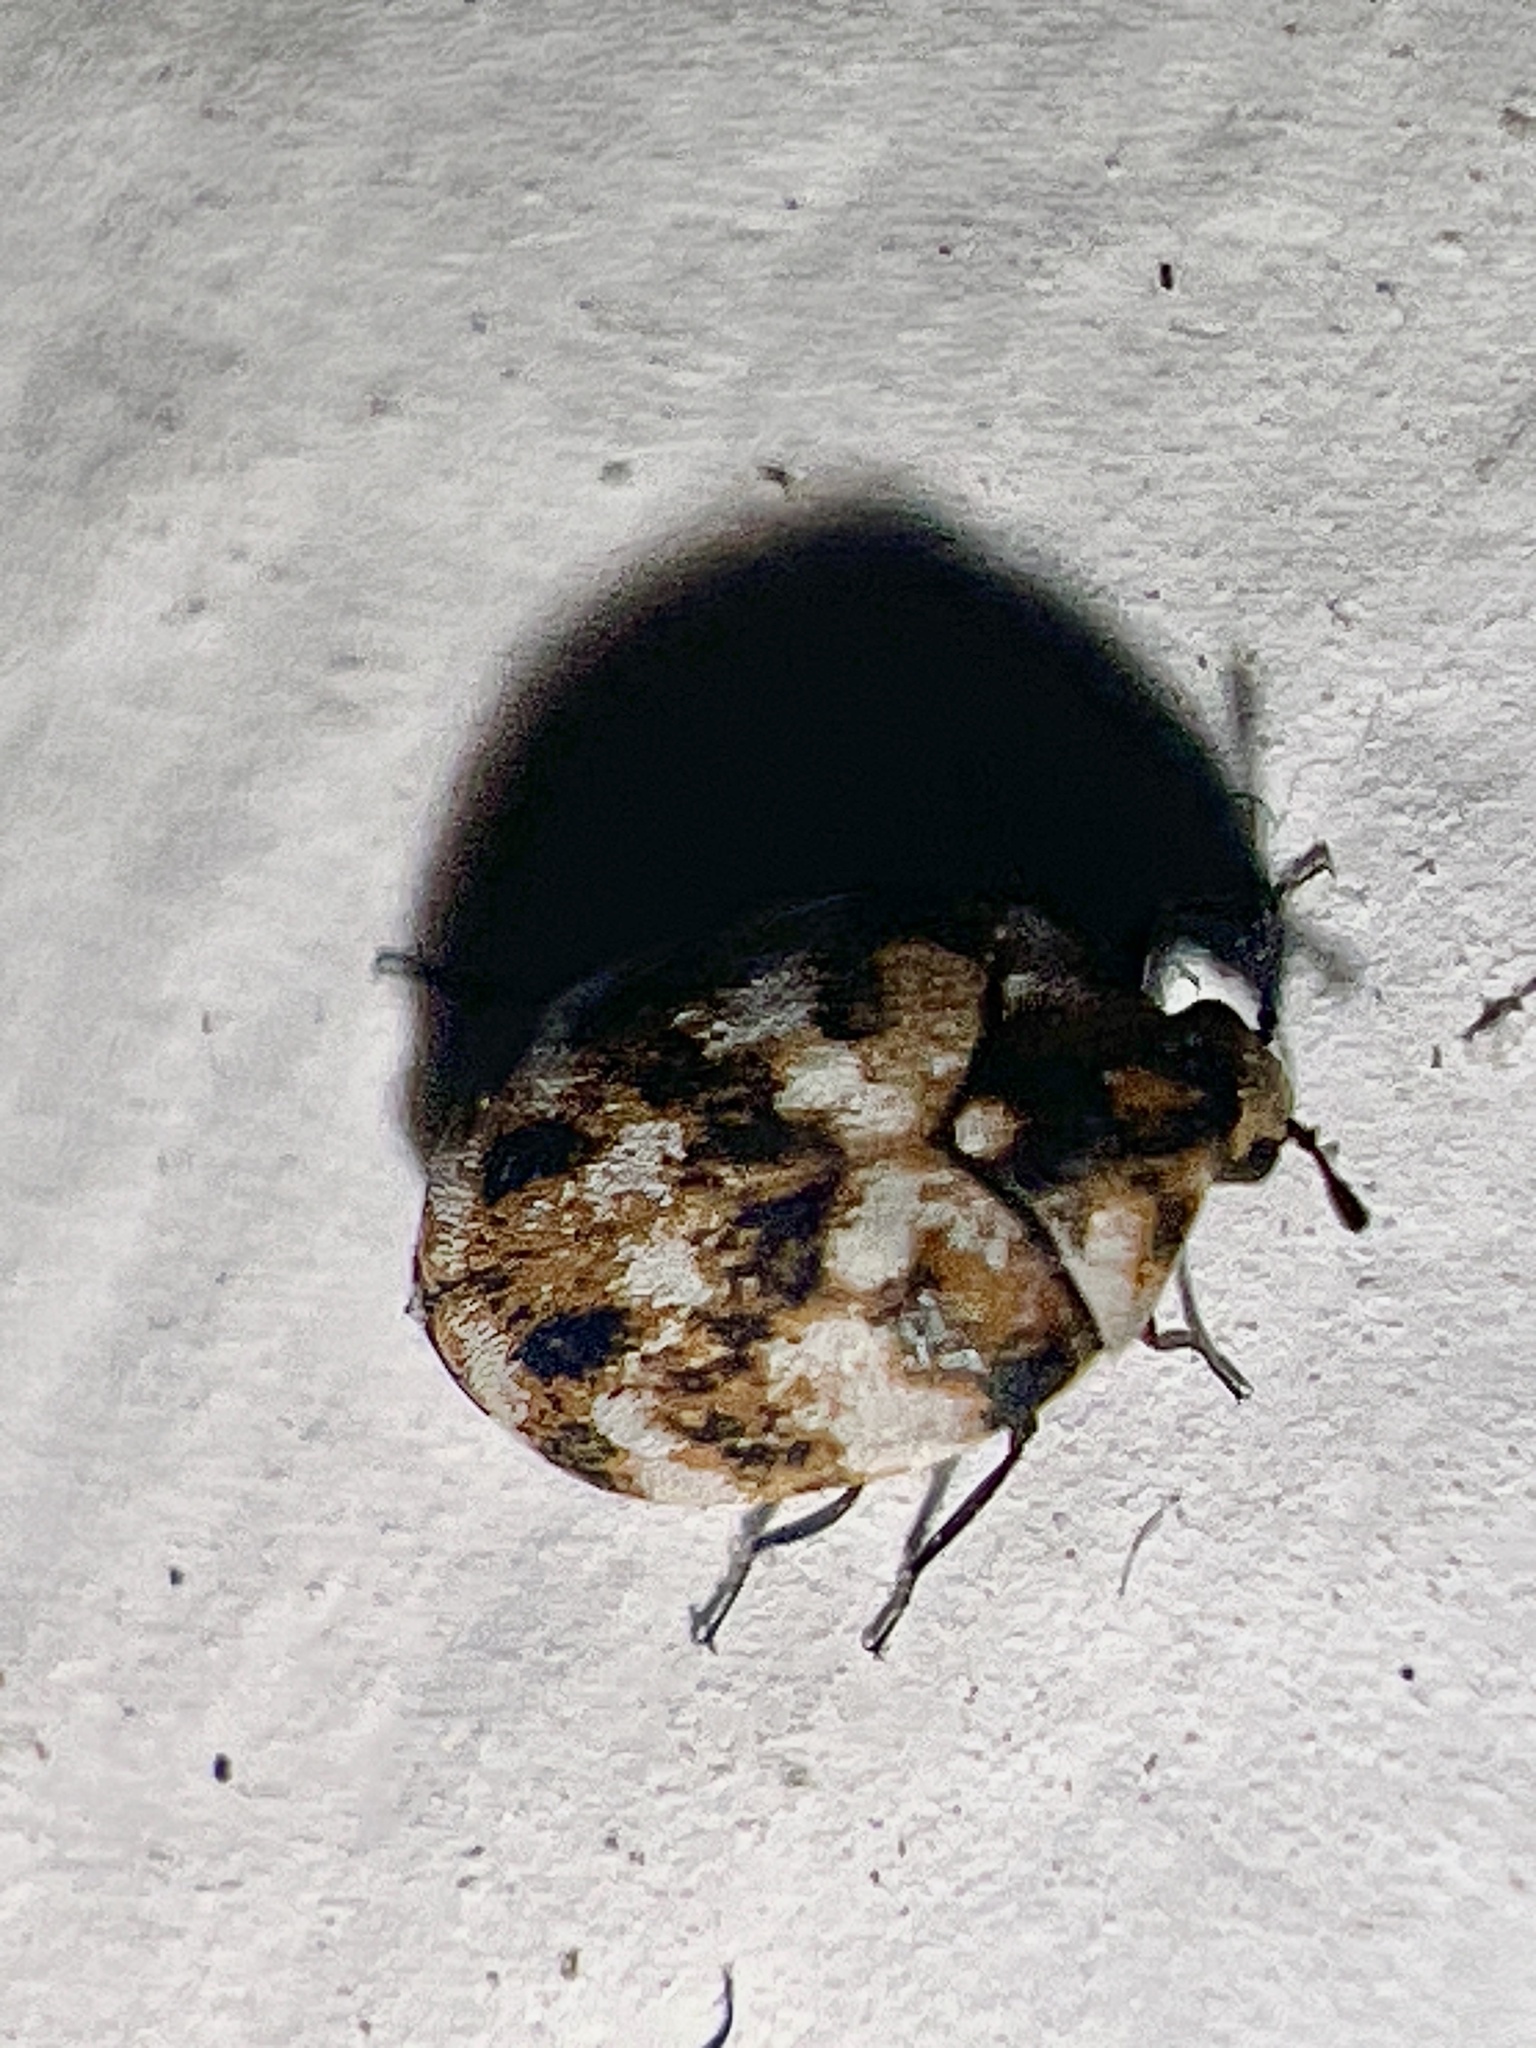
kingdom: Animalia
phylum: Arthropoda
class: Insecta
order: Coleoptera
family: Dermestidae
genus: Anthrenus
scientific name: Anthrenus verbasci
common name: Varied carpet beetle
